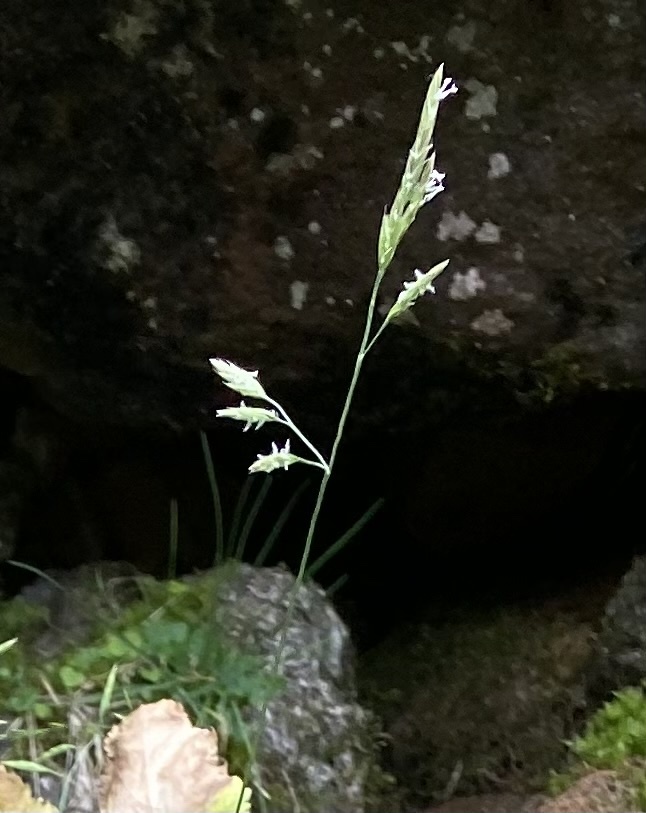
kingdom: Plantae
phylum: Tracheophyta
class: Liliopsida
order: Poales
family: Poaceae
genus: Festuca
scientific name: Festuca ovina
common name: Sheep fescue
